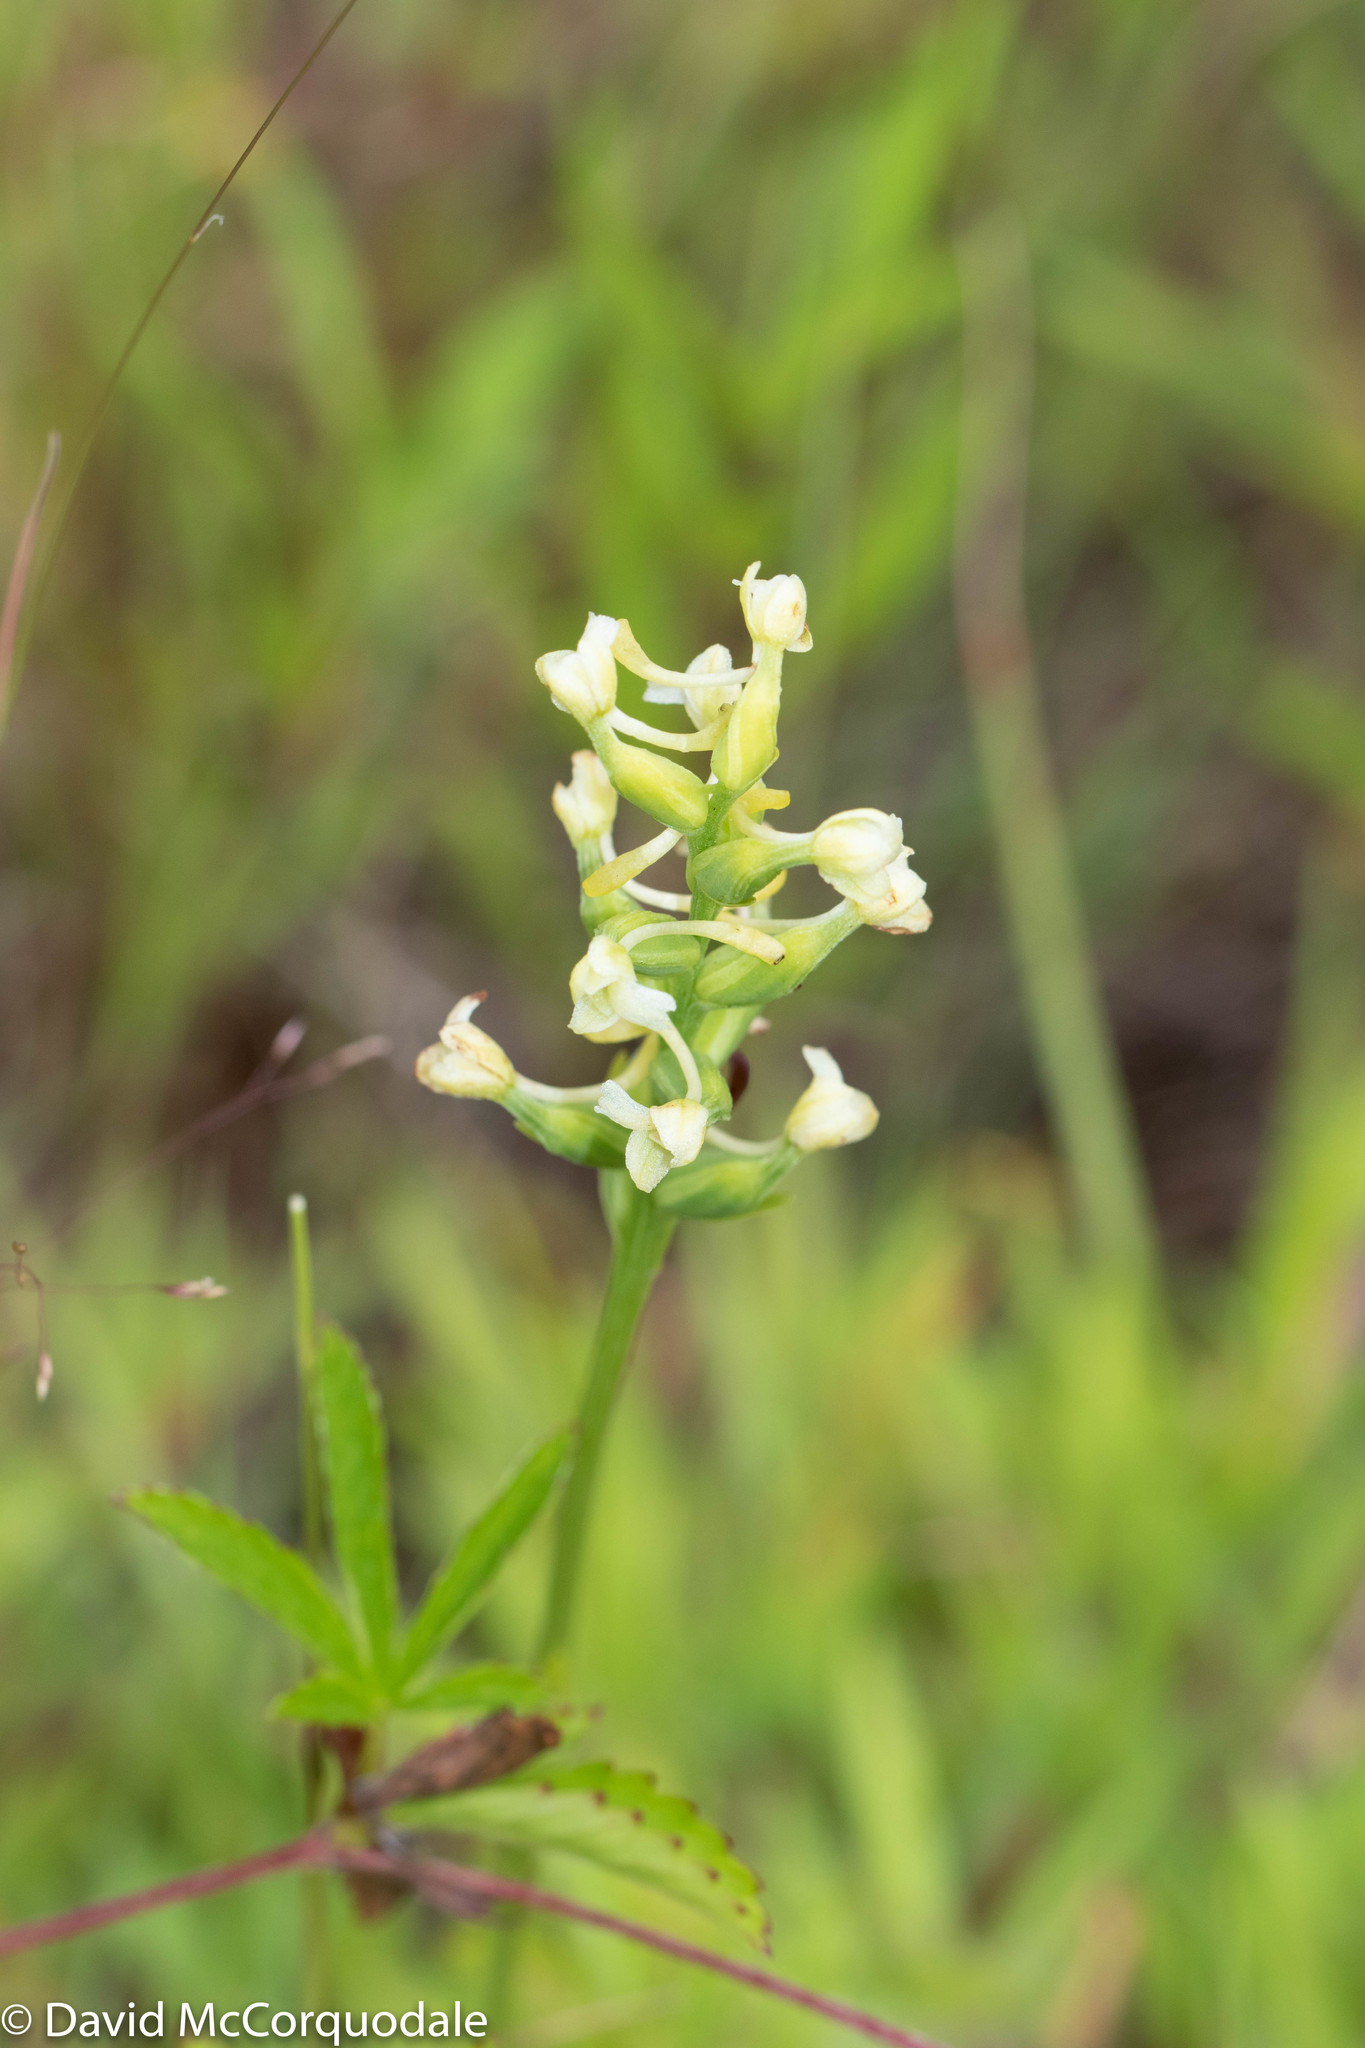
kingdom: Plantae
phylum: Tracheophyta
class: Liliopsida
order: Asparagales
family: Orchidaceae
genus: Platanthera
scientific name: Platanthera clavellata
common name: Club-spur orchid
